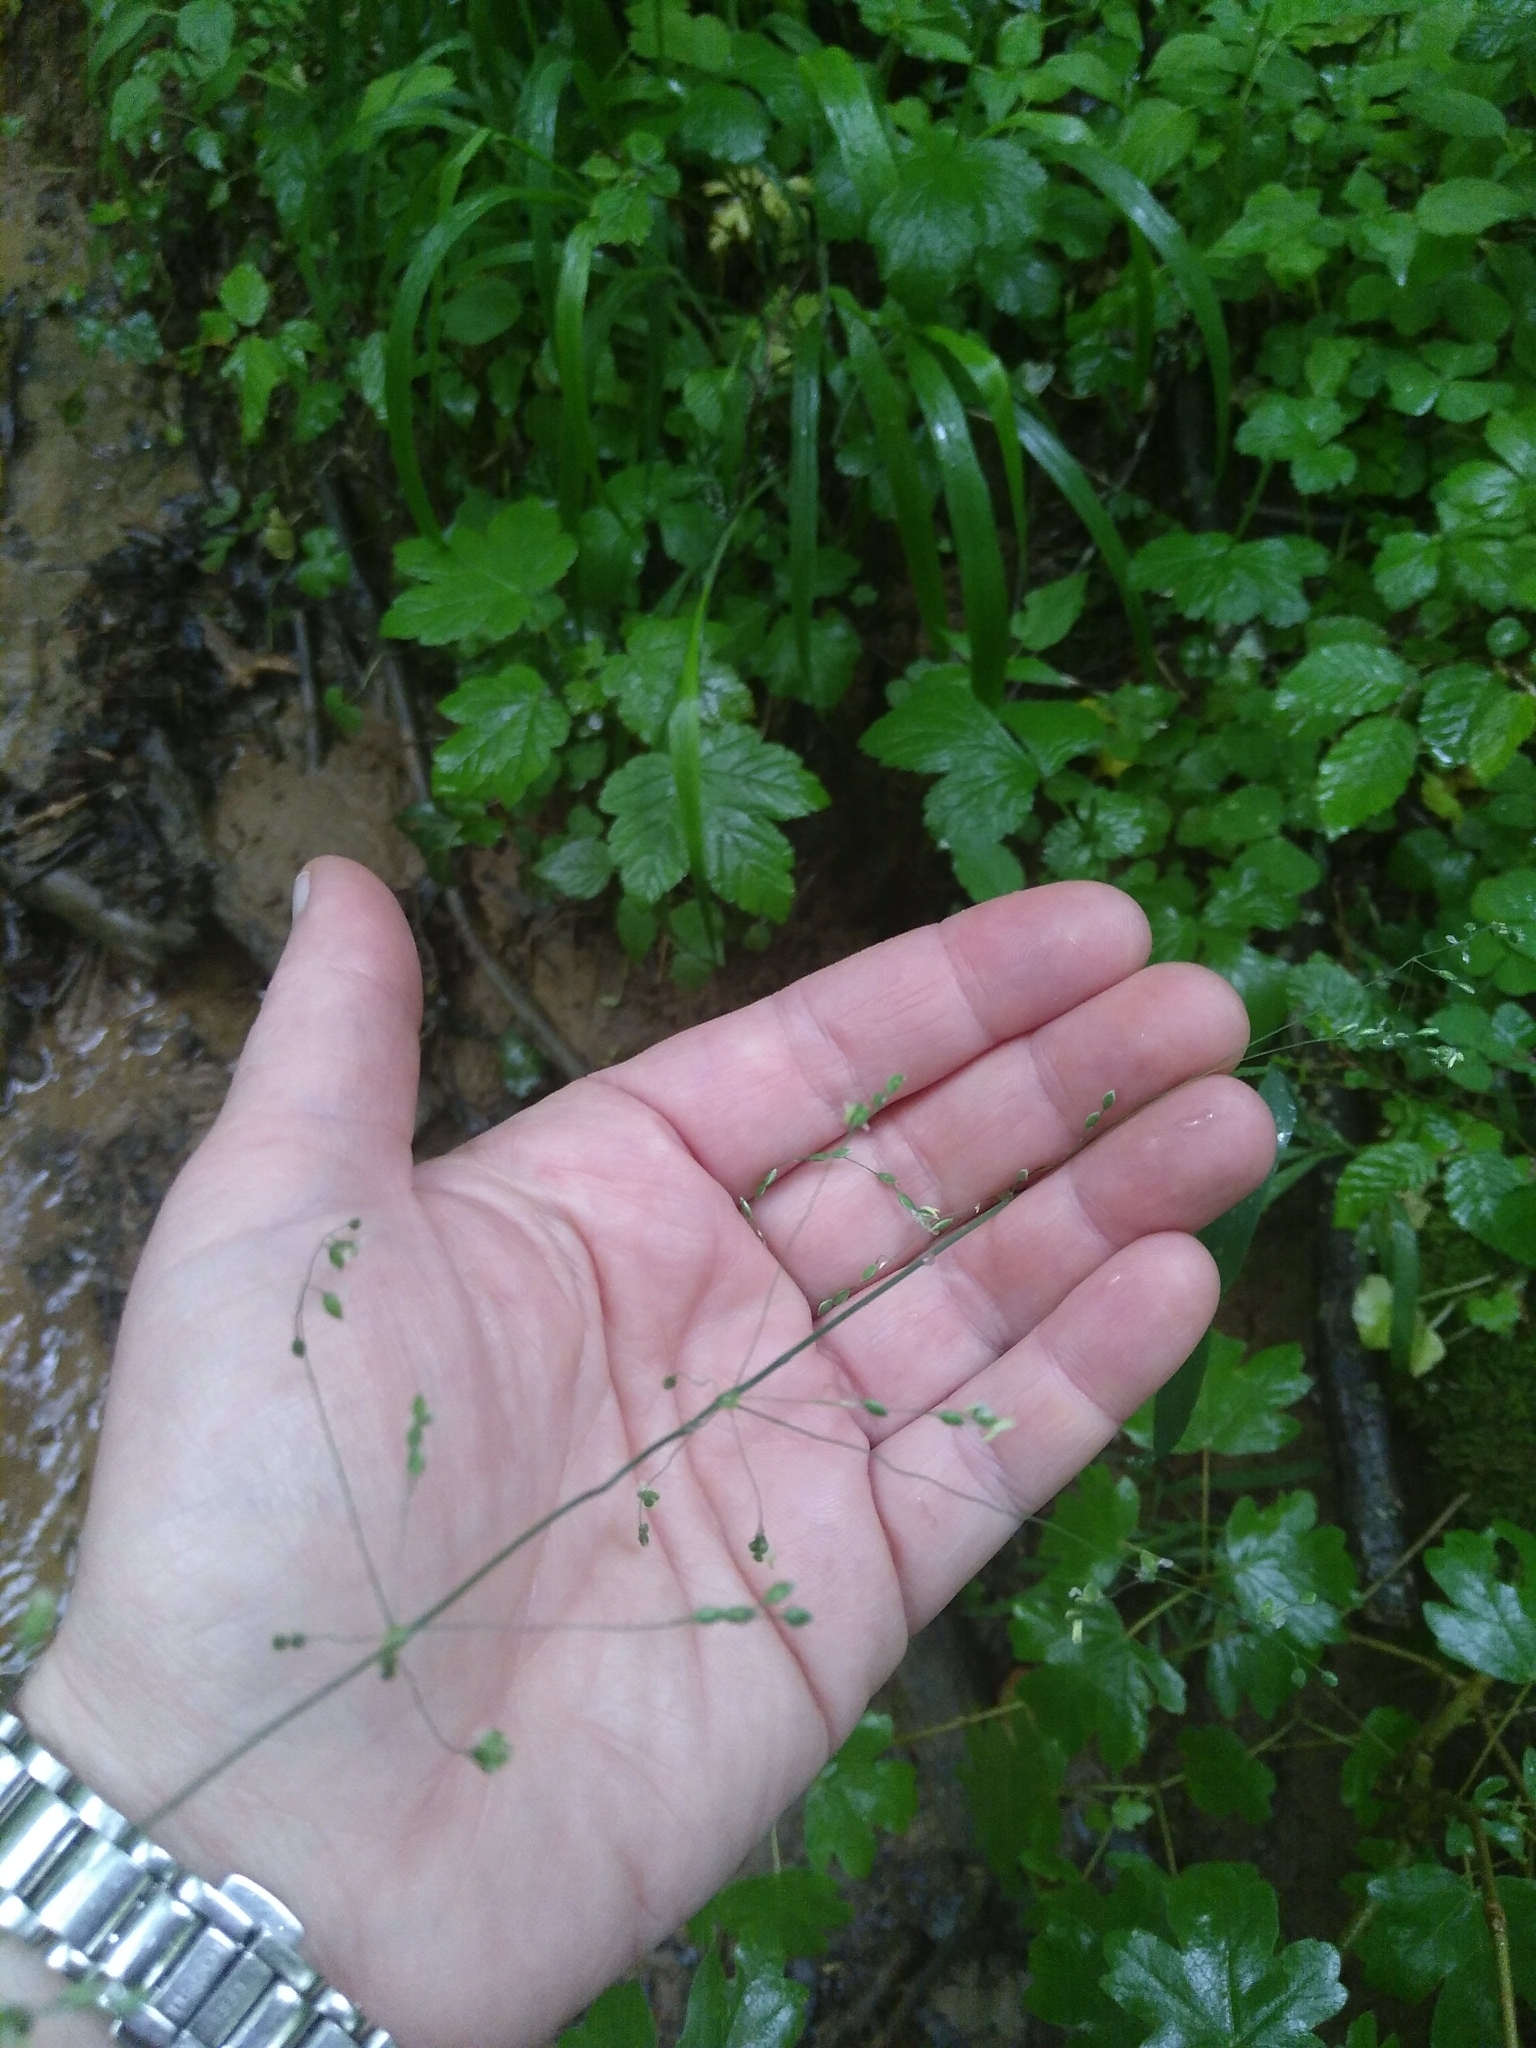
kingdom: Plantae
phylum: Tracheophyta
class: Liliopsida
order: Poales
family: Poaceae
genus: Milium
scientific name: Milium effusum
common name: Wood millet
